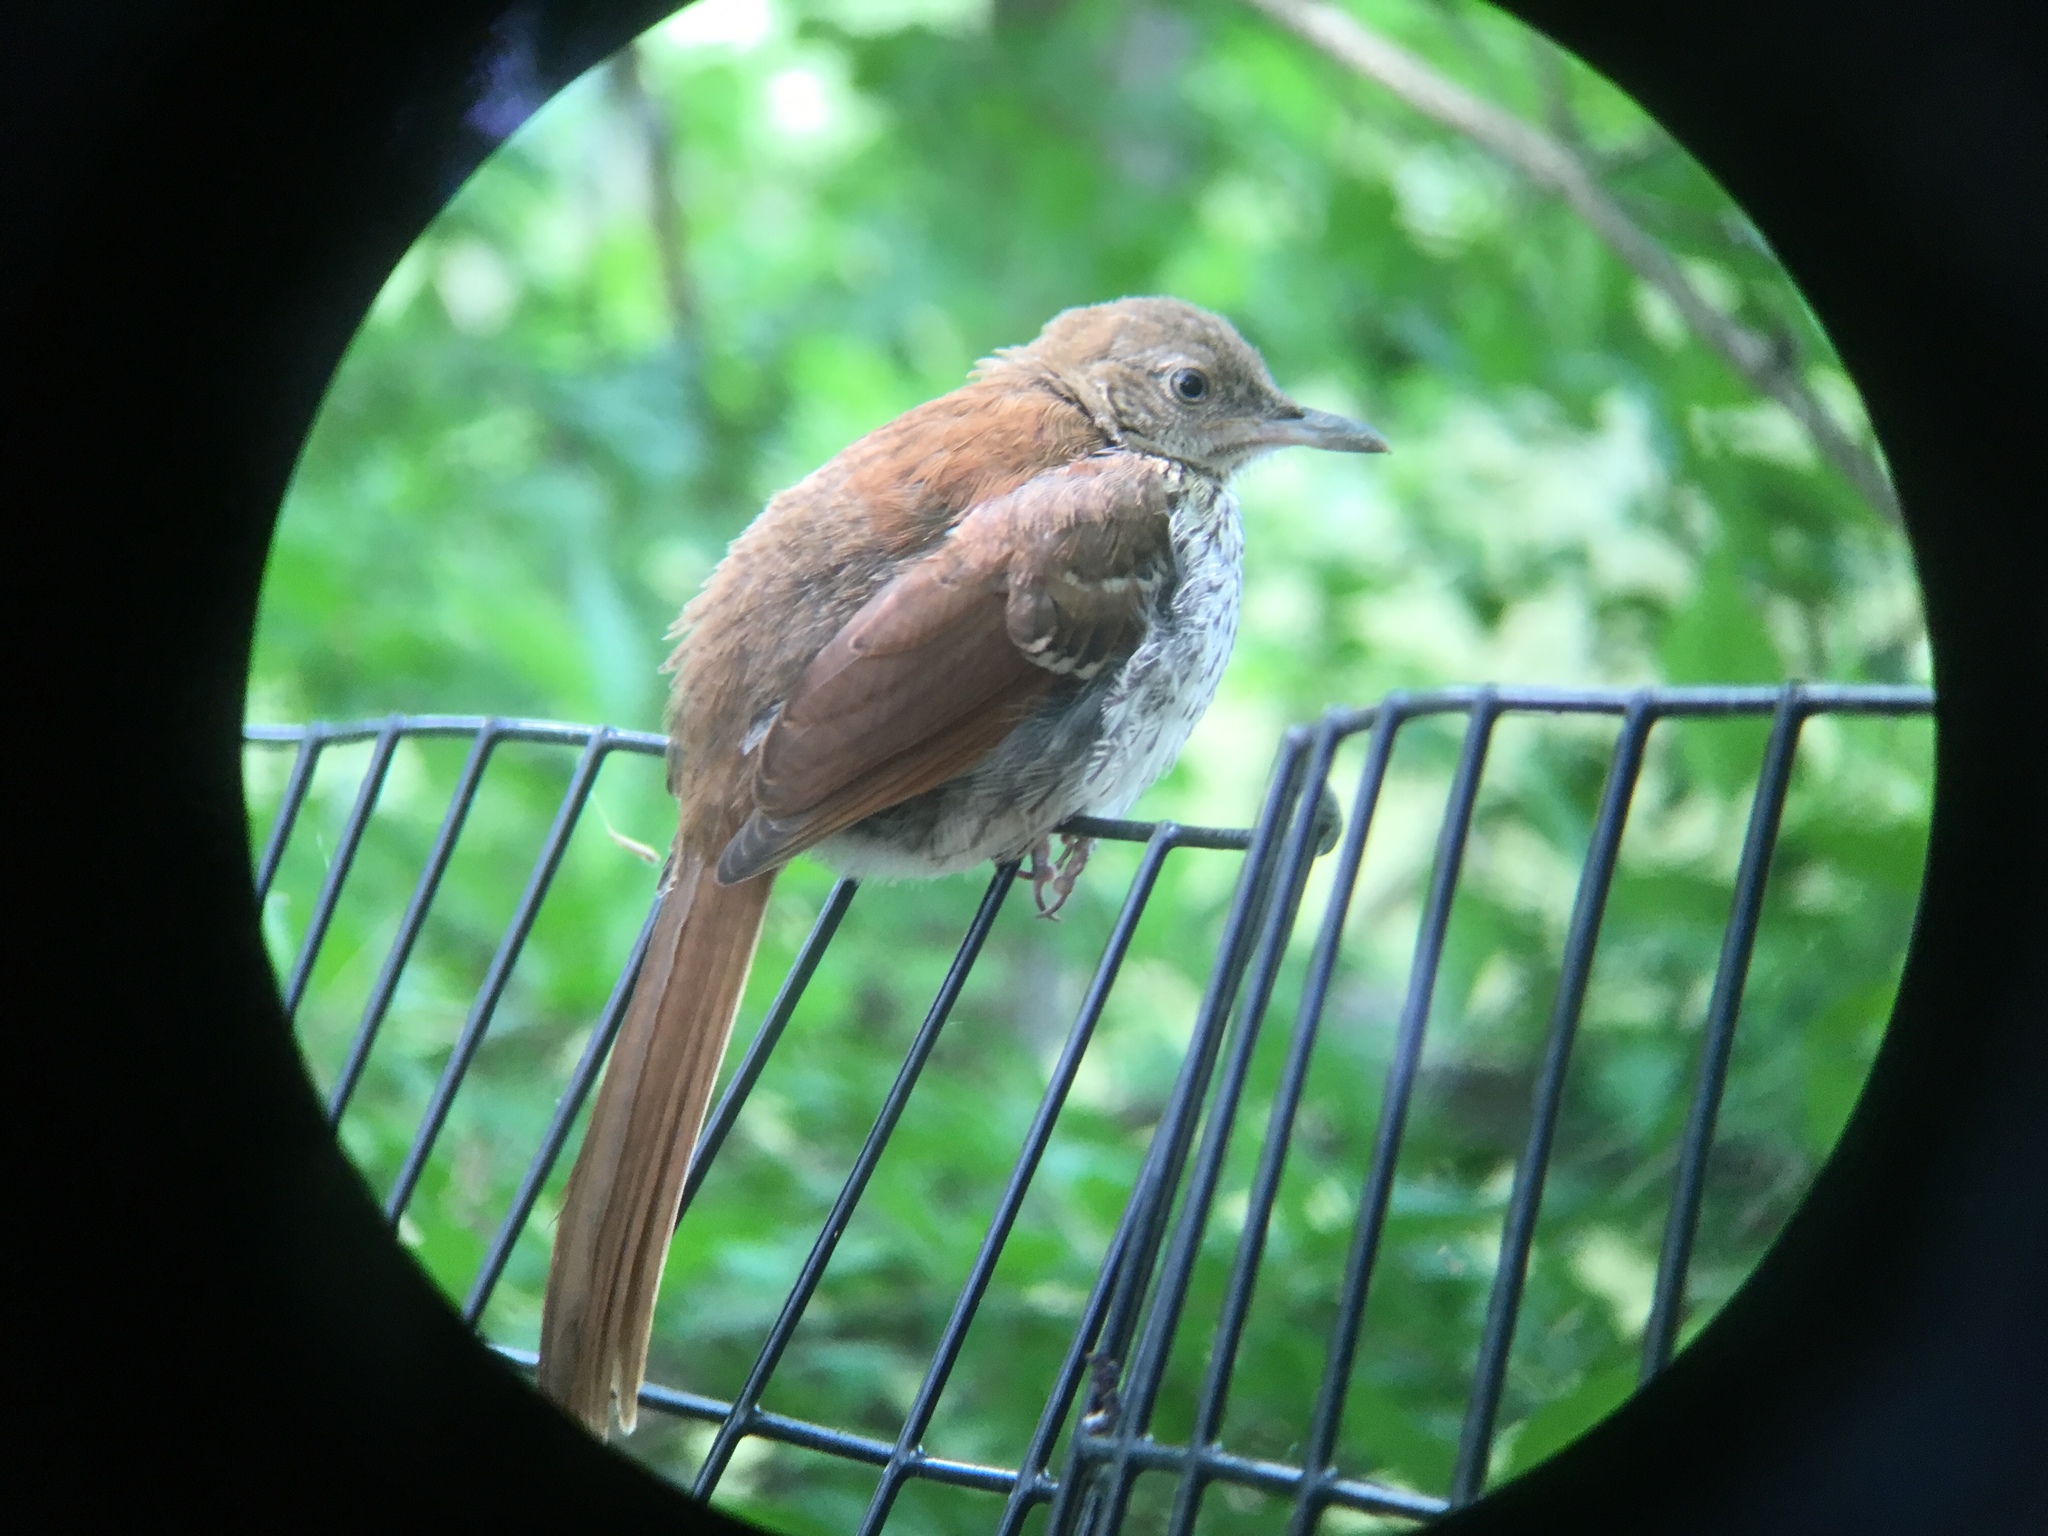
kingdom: Animalia
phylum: Chordata
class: Aves
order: Passeriformes
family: Mimidae
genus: Toxostoma
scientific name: Toxostoma rufum
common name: Brown thrasher
